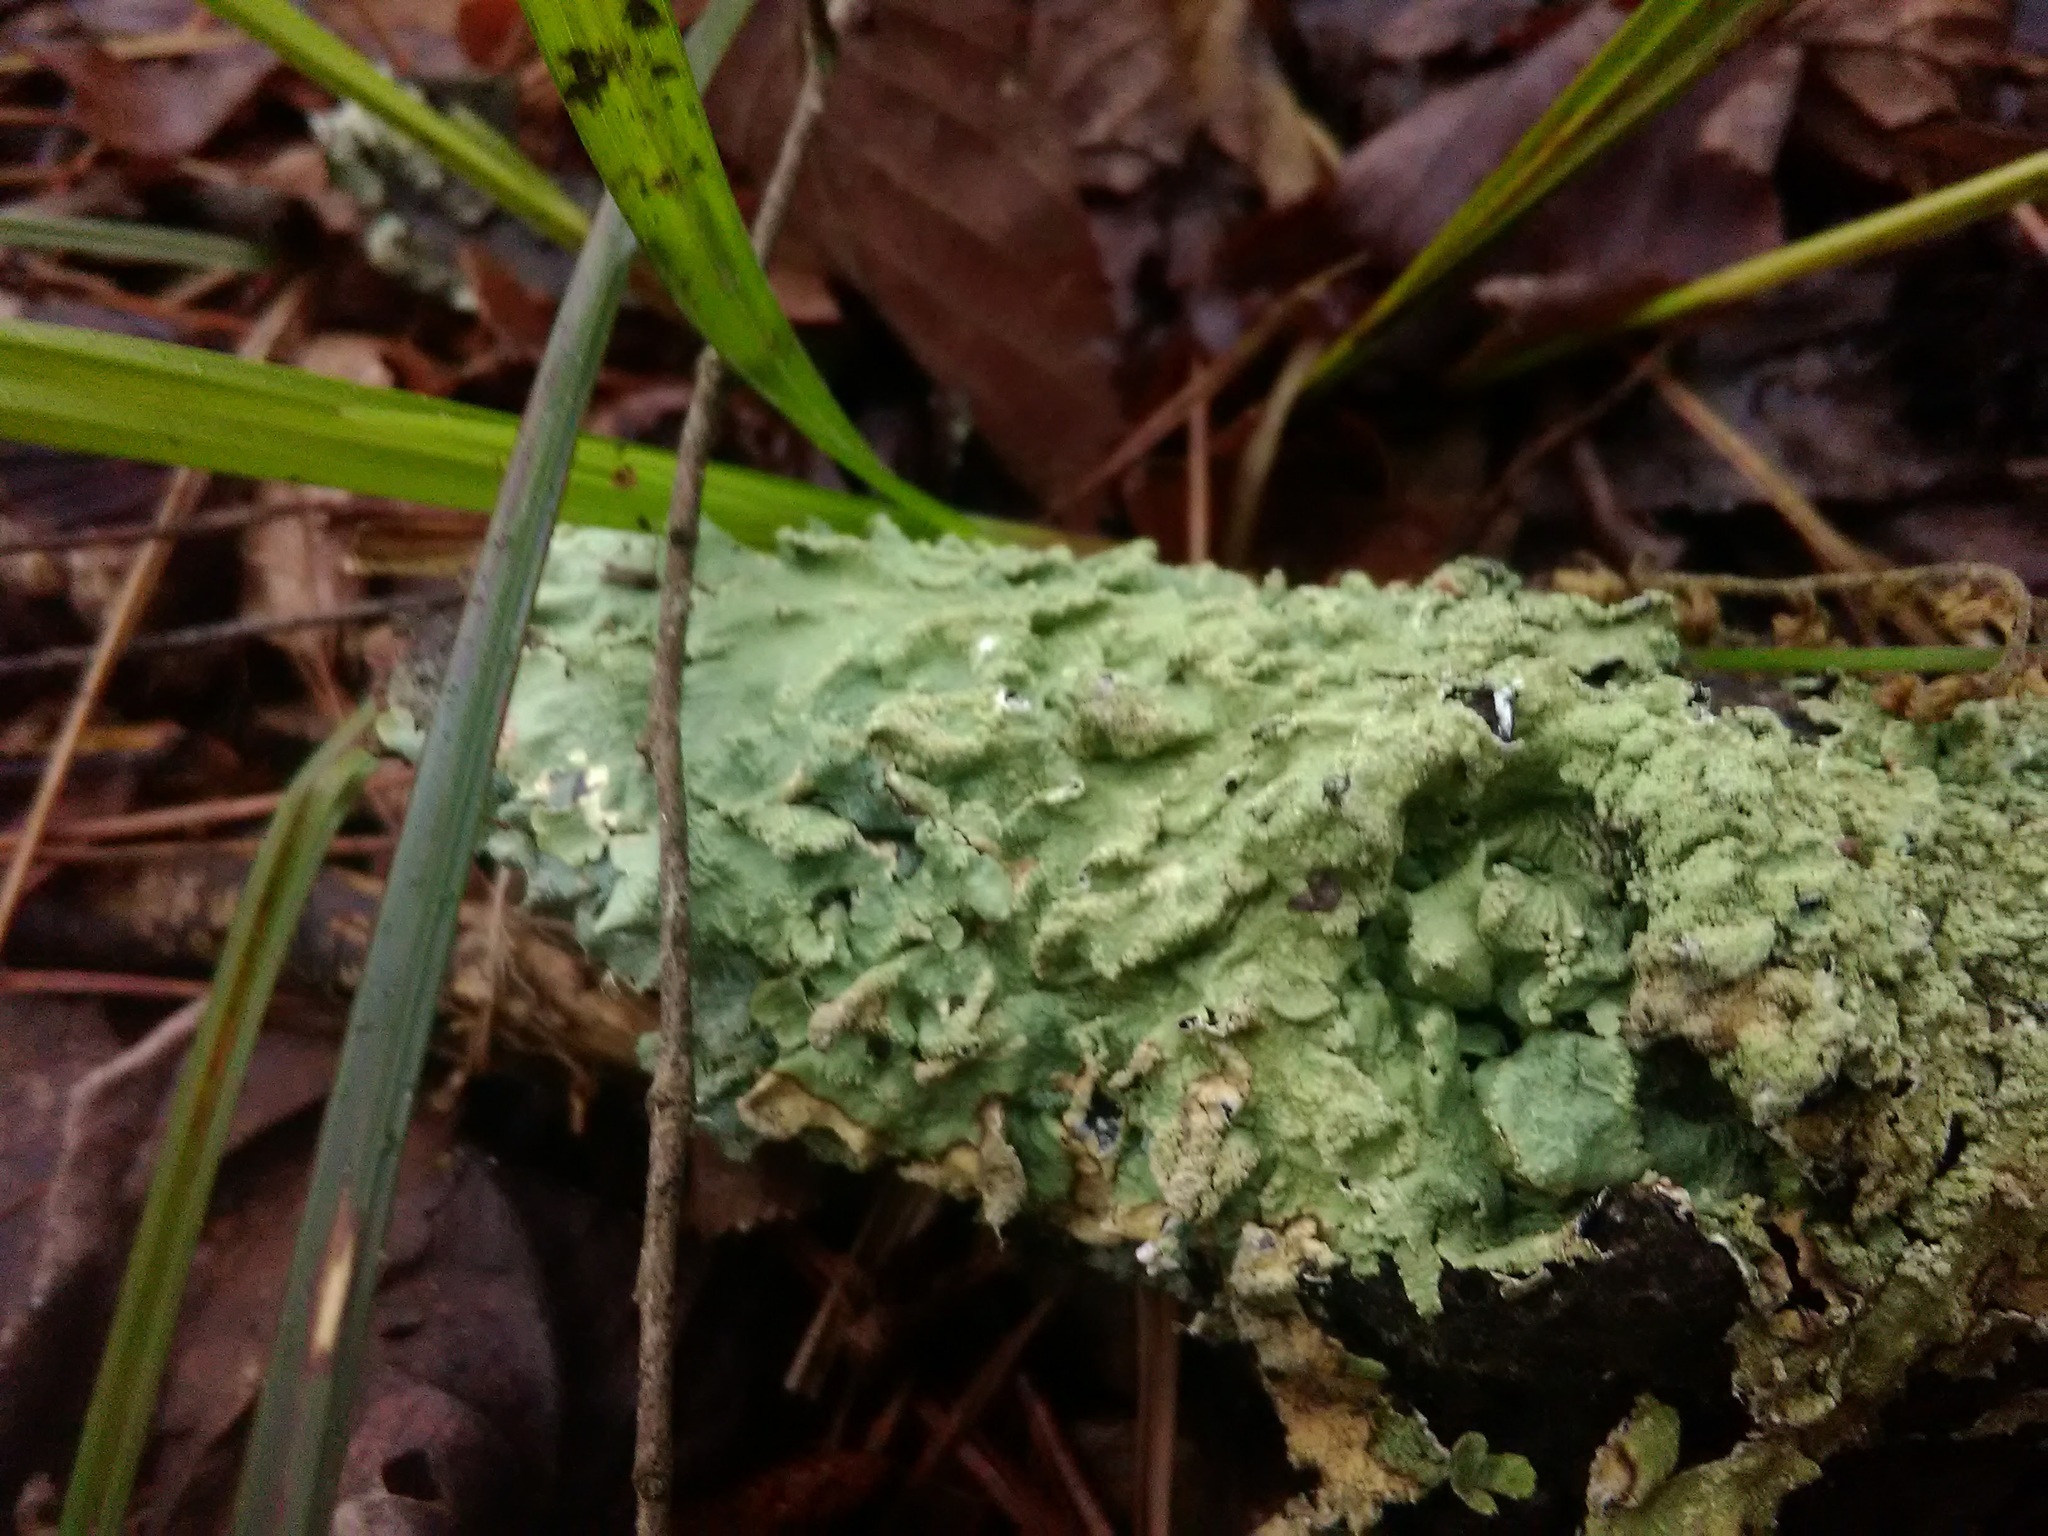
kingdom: Fungi
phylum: Ascomycota
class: Lecanoromycetes
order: Lecanorales
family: Parmeliaceae
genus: Flavoparmelia
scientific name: Flavoparmelia caperata
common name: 40-mile per hour lichen
